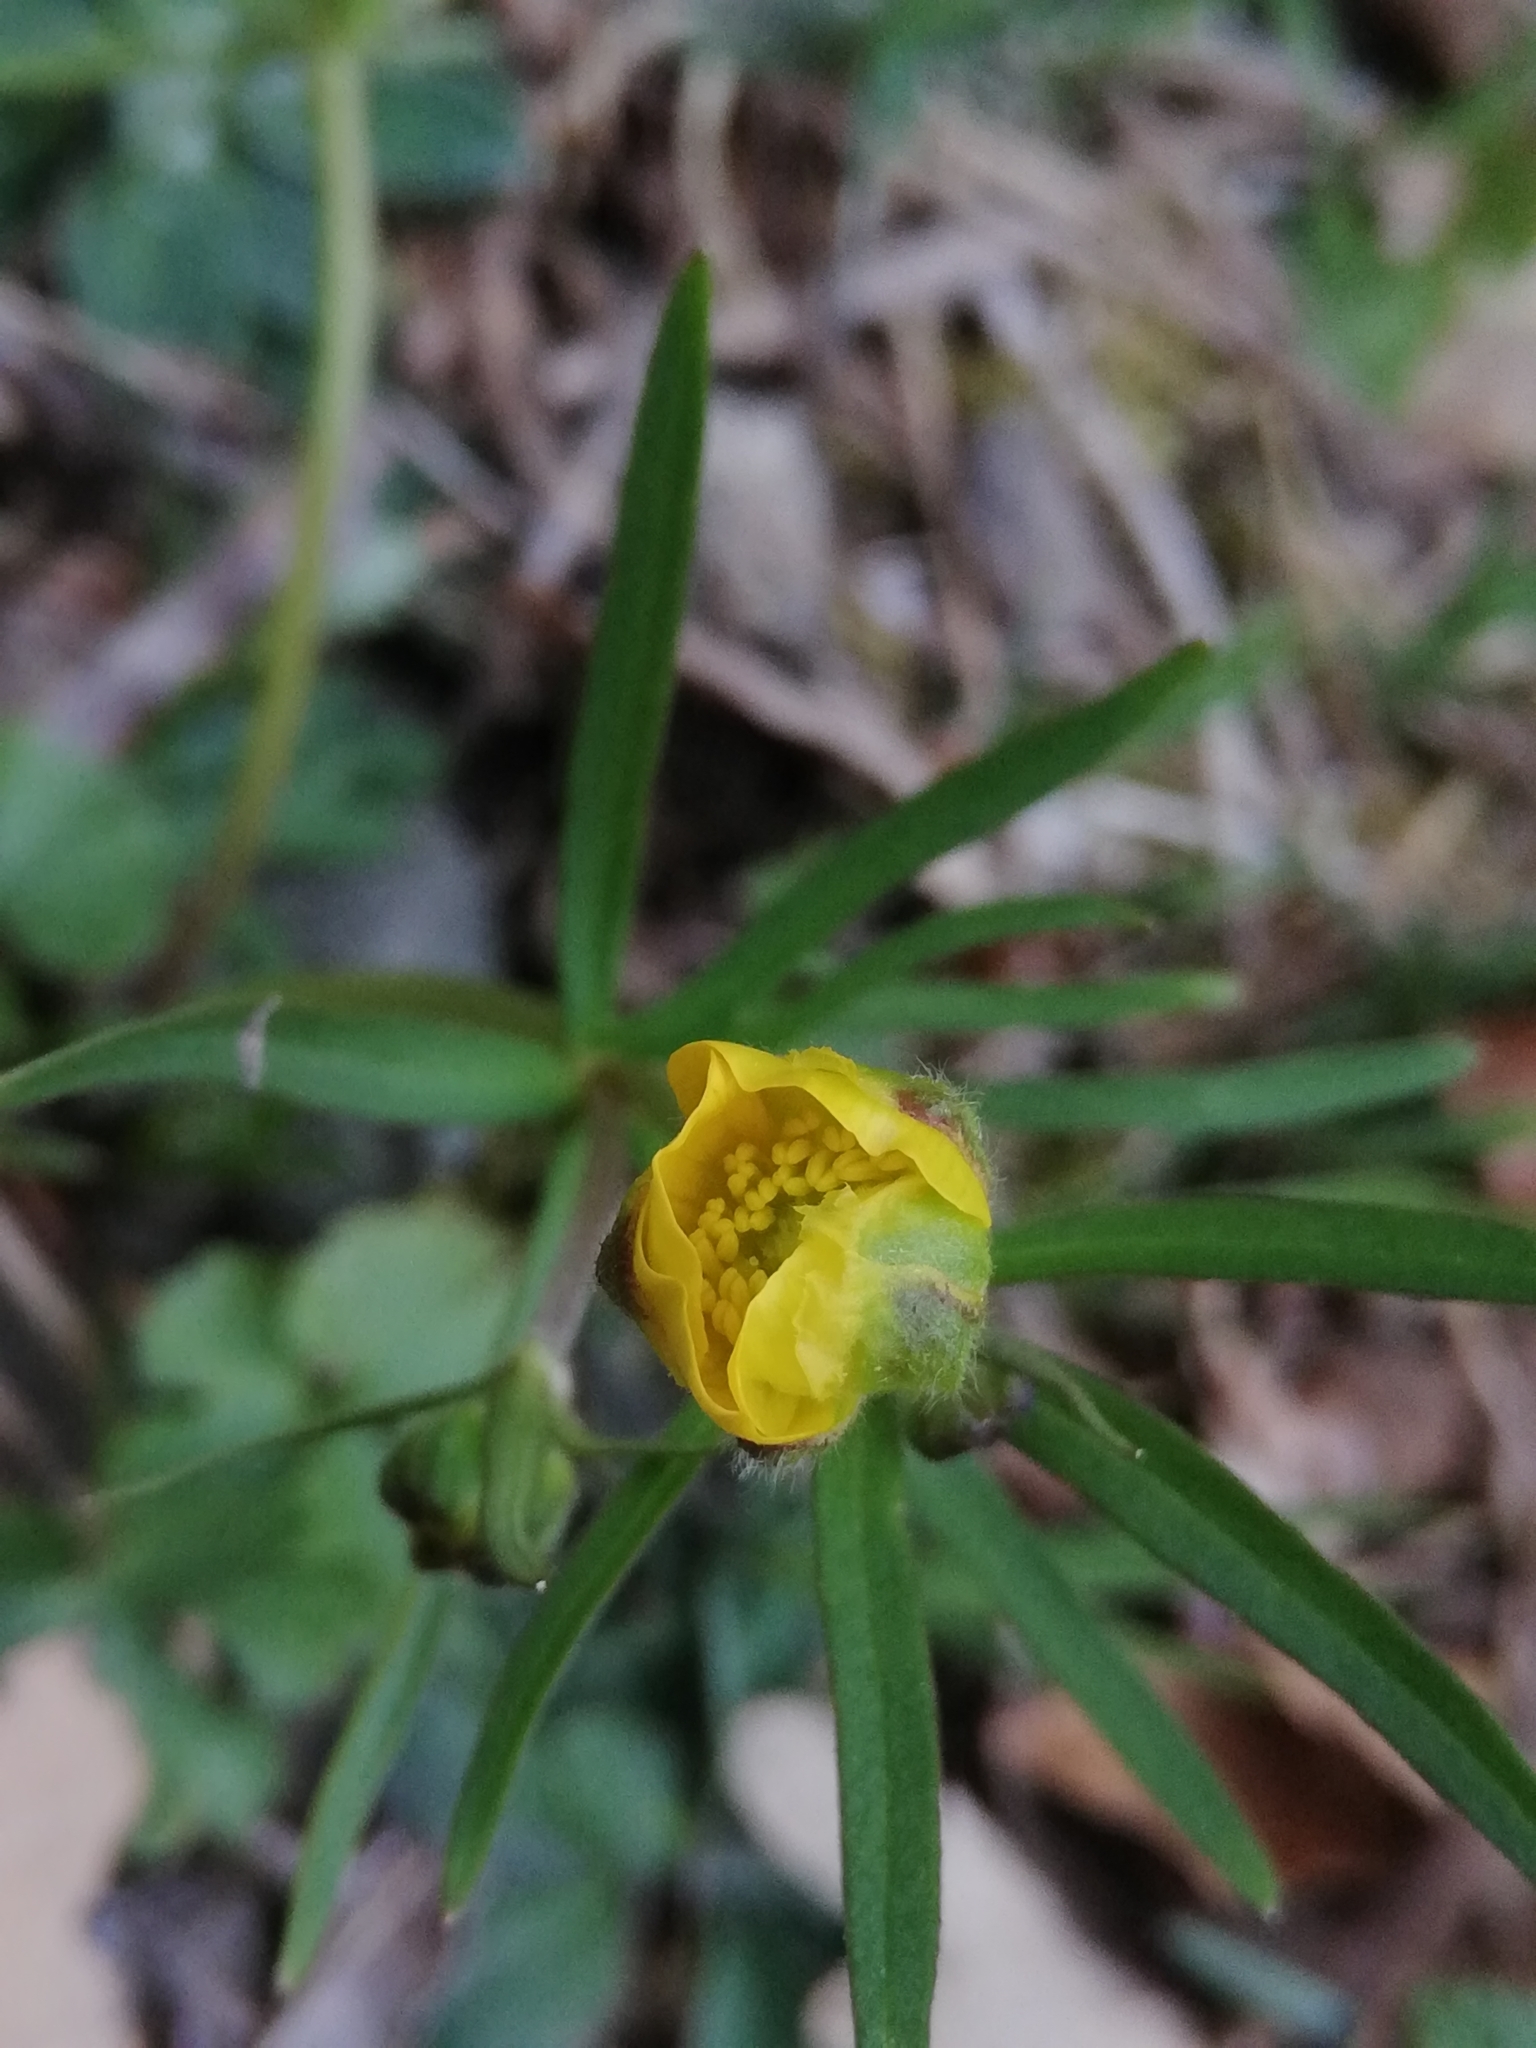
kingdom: Plantae
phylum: Tracheophyta
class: Magnoliopsida
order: Ranunculales
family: Ranunculaceae
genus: Ranunculus
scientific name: Ranunculus auricomus
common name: Goldilocks buttercup
